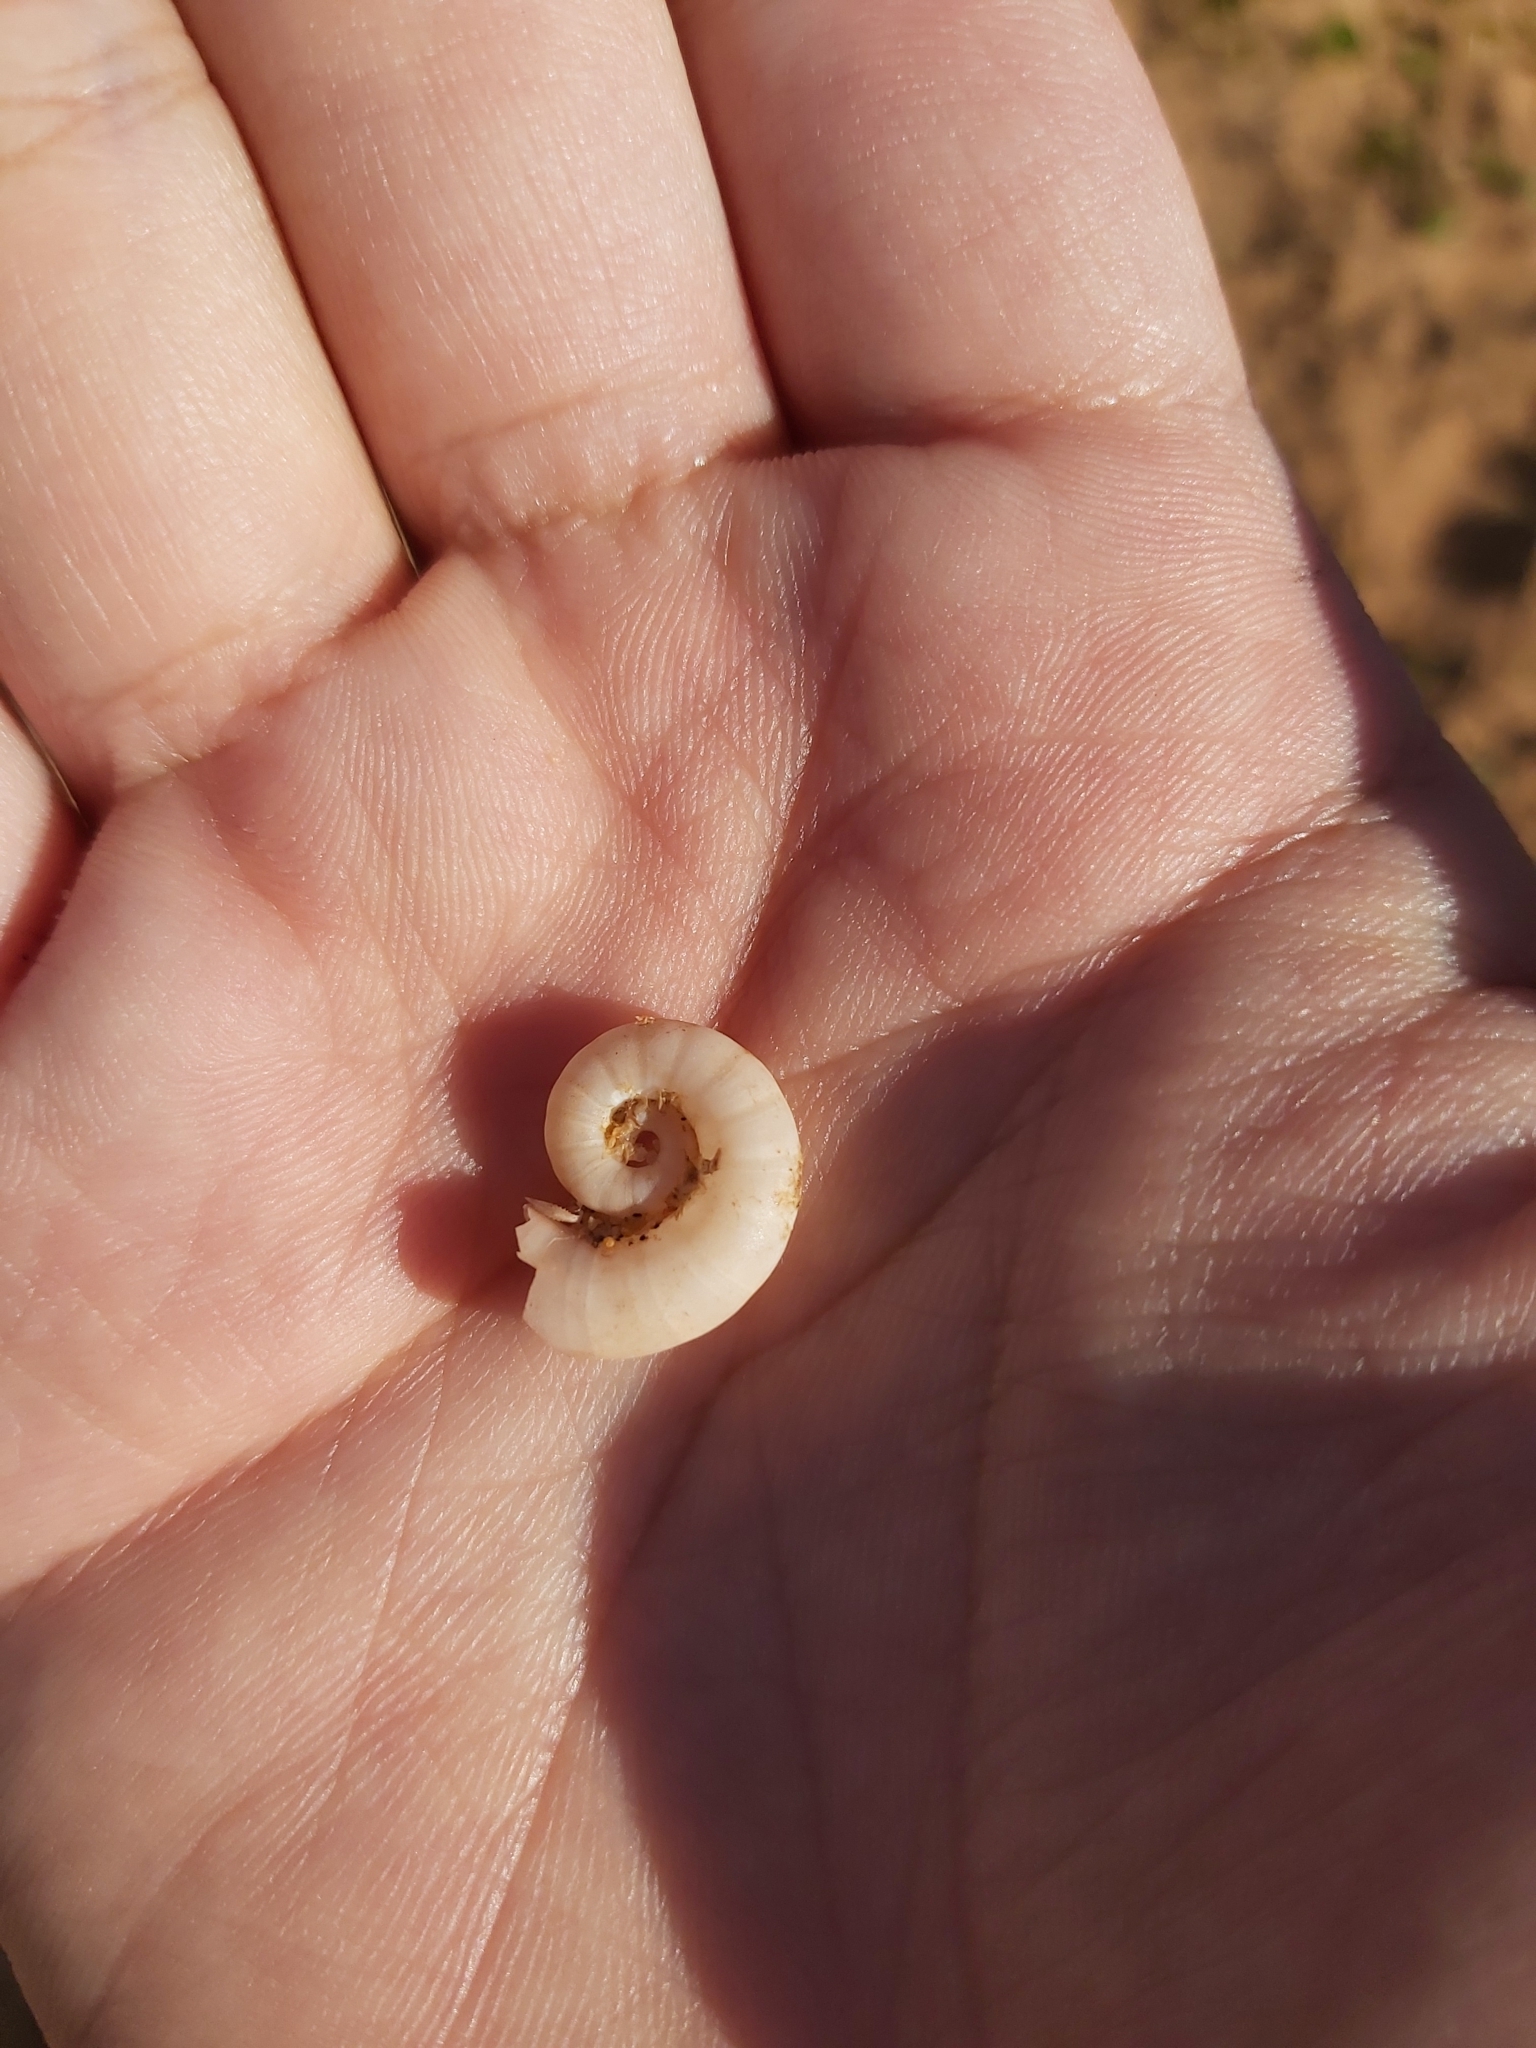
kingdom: Animalia
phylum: Mollusca
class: Cephalopoda
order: Spirulida
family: Spirulidae
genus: Spirula
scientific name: Spirula spirula
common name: Ram's horn squid
